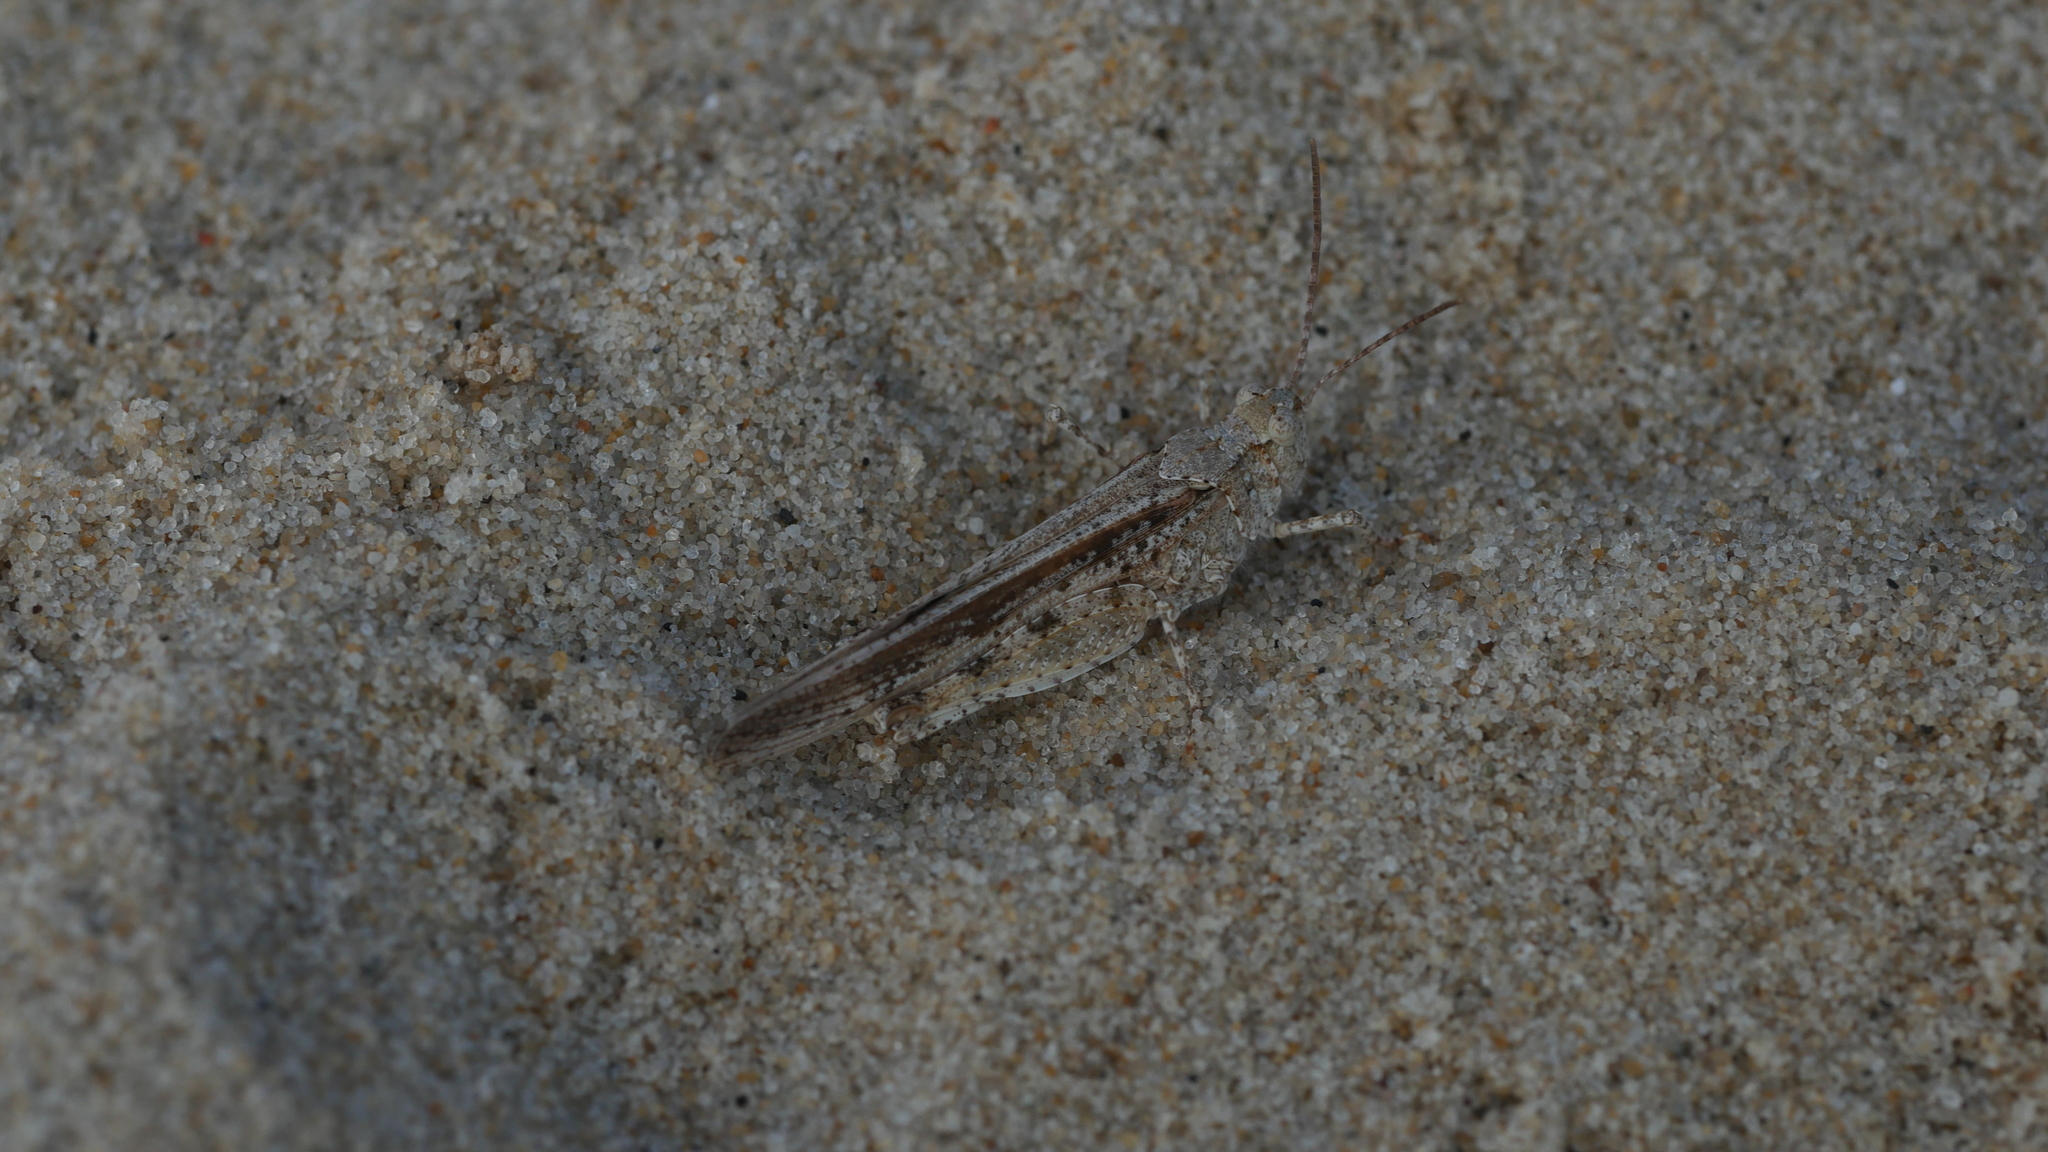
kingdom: Animalia
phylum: Arthropoda
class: Insecta
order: Orthoptera
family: Acrididae
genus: Trimerotropis
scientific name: Trimerotropis maritima
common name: Seaside locust
